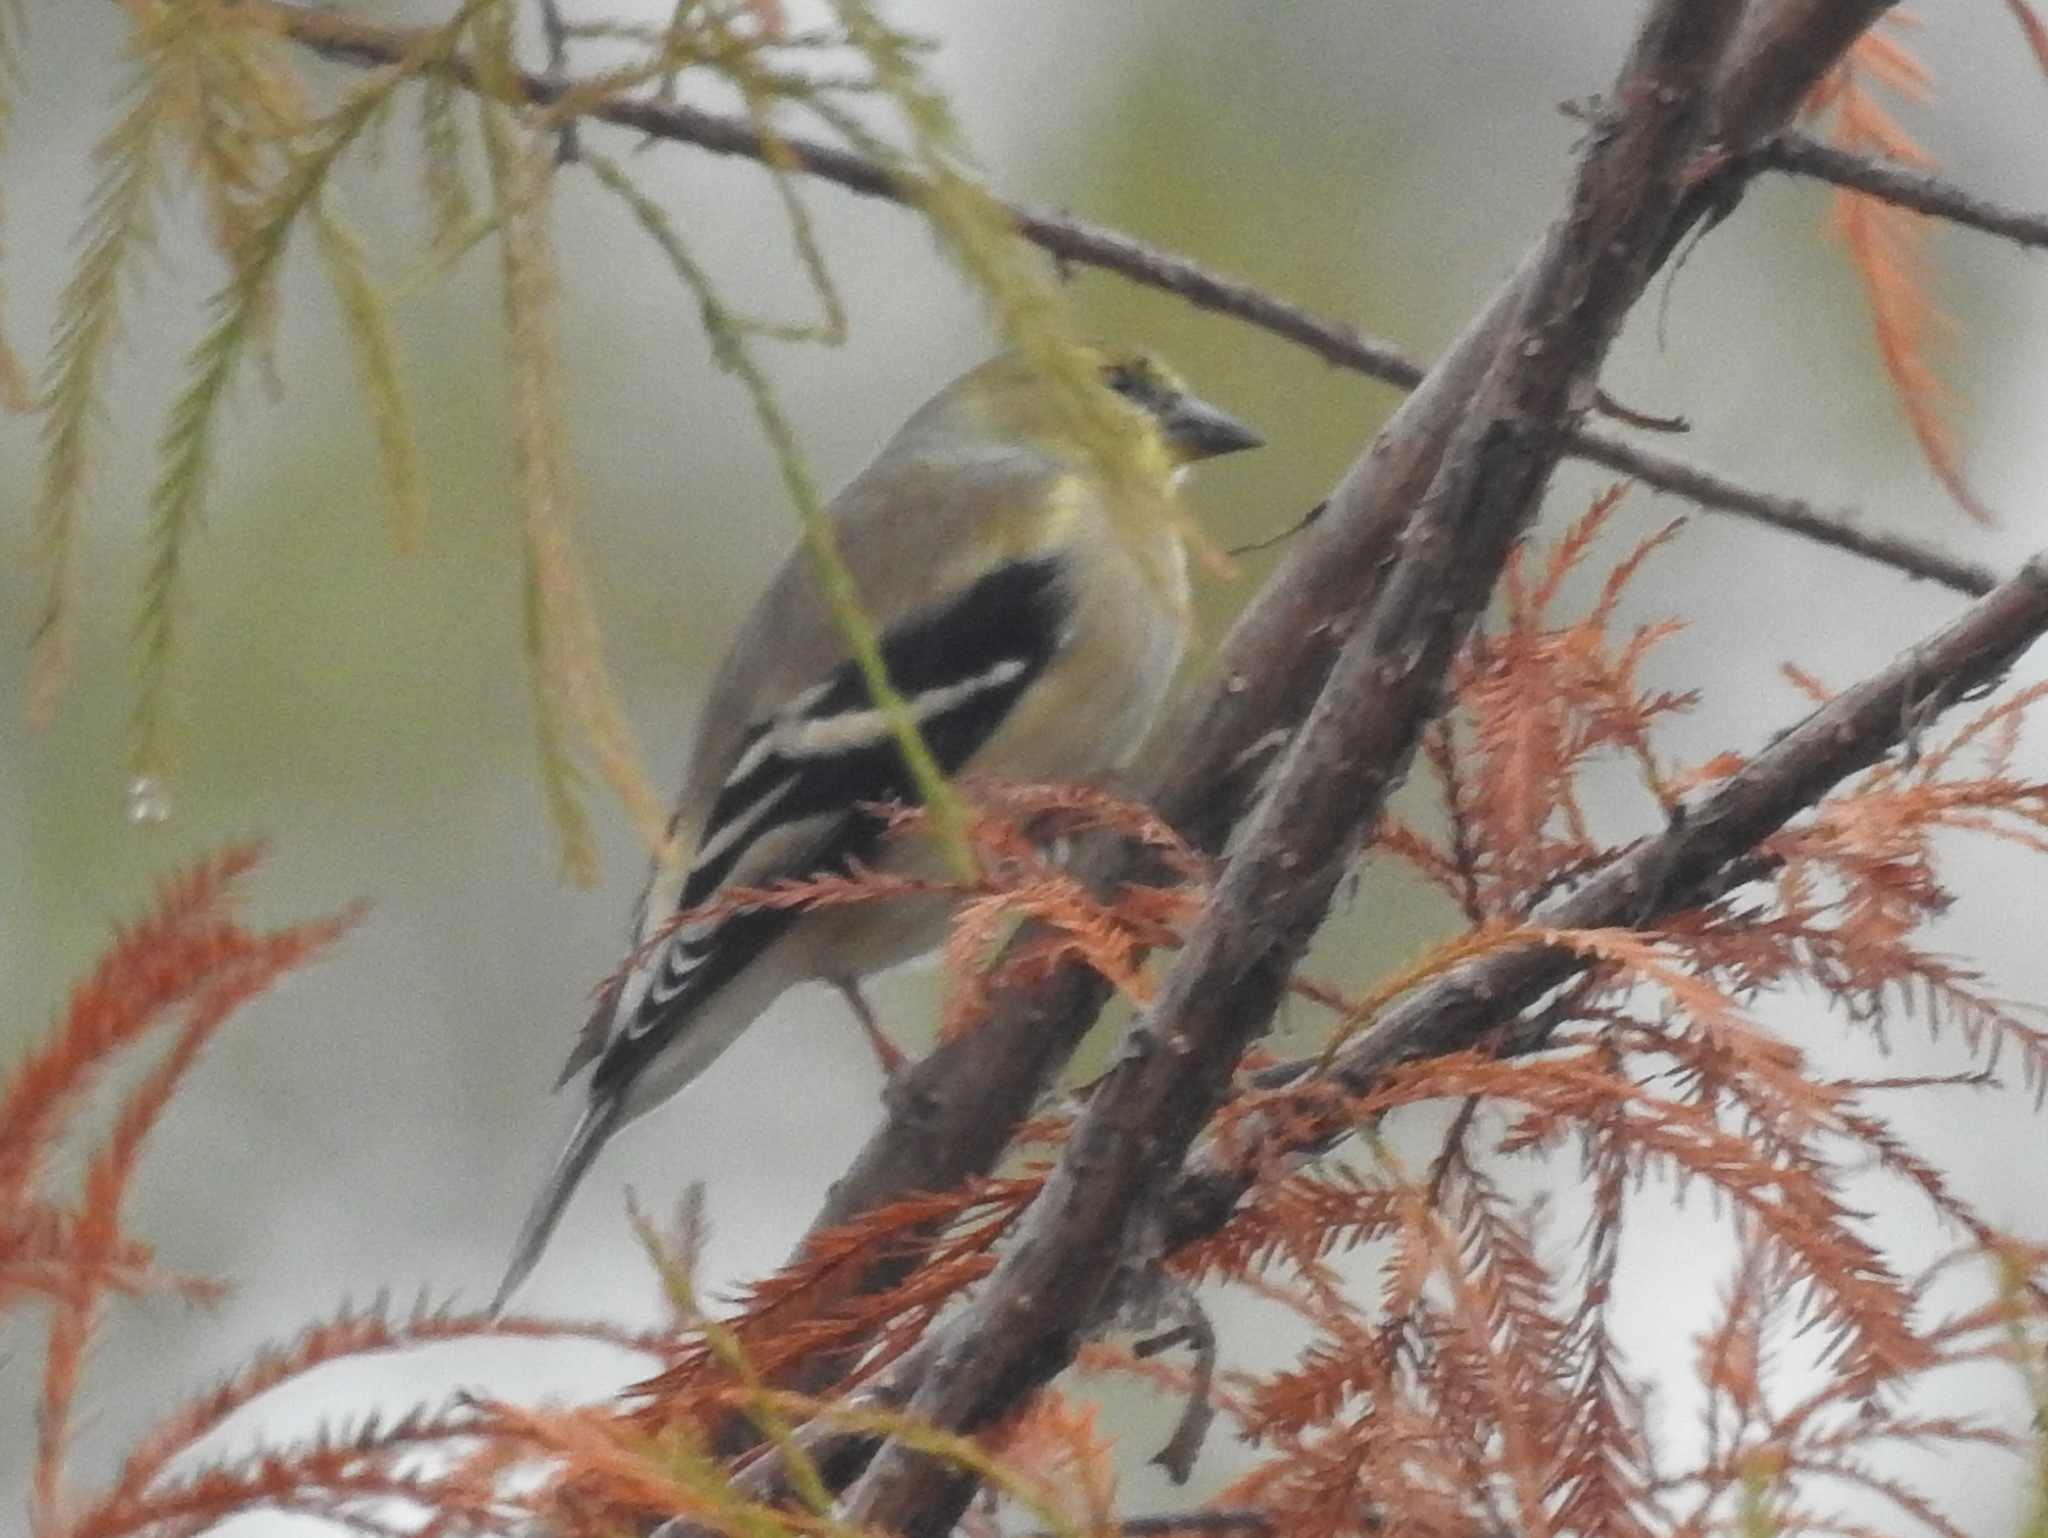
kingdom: Animalia
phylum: Chordata
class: Aves
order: Passeriformes
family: Fringillidae
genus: Spinus
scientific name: Spinus tristis
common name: American goldfinch
